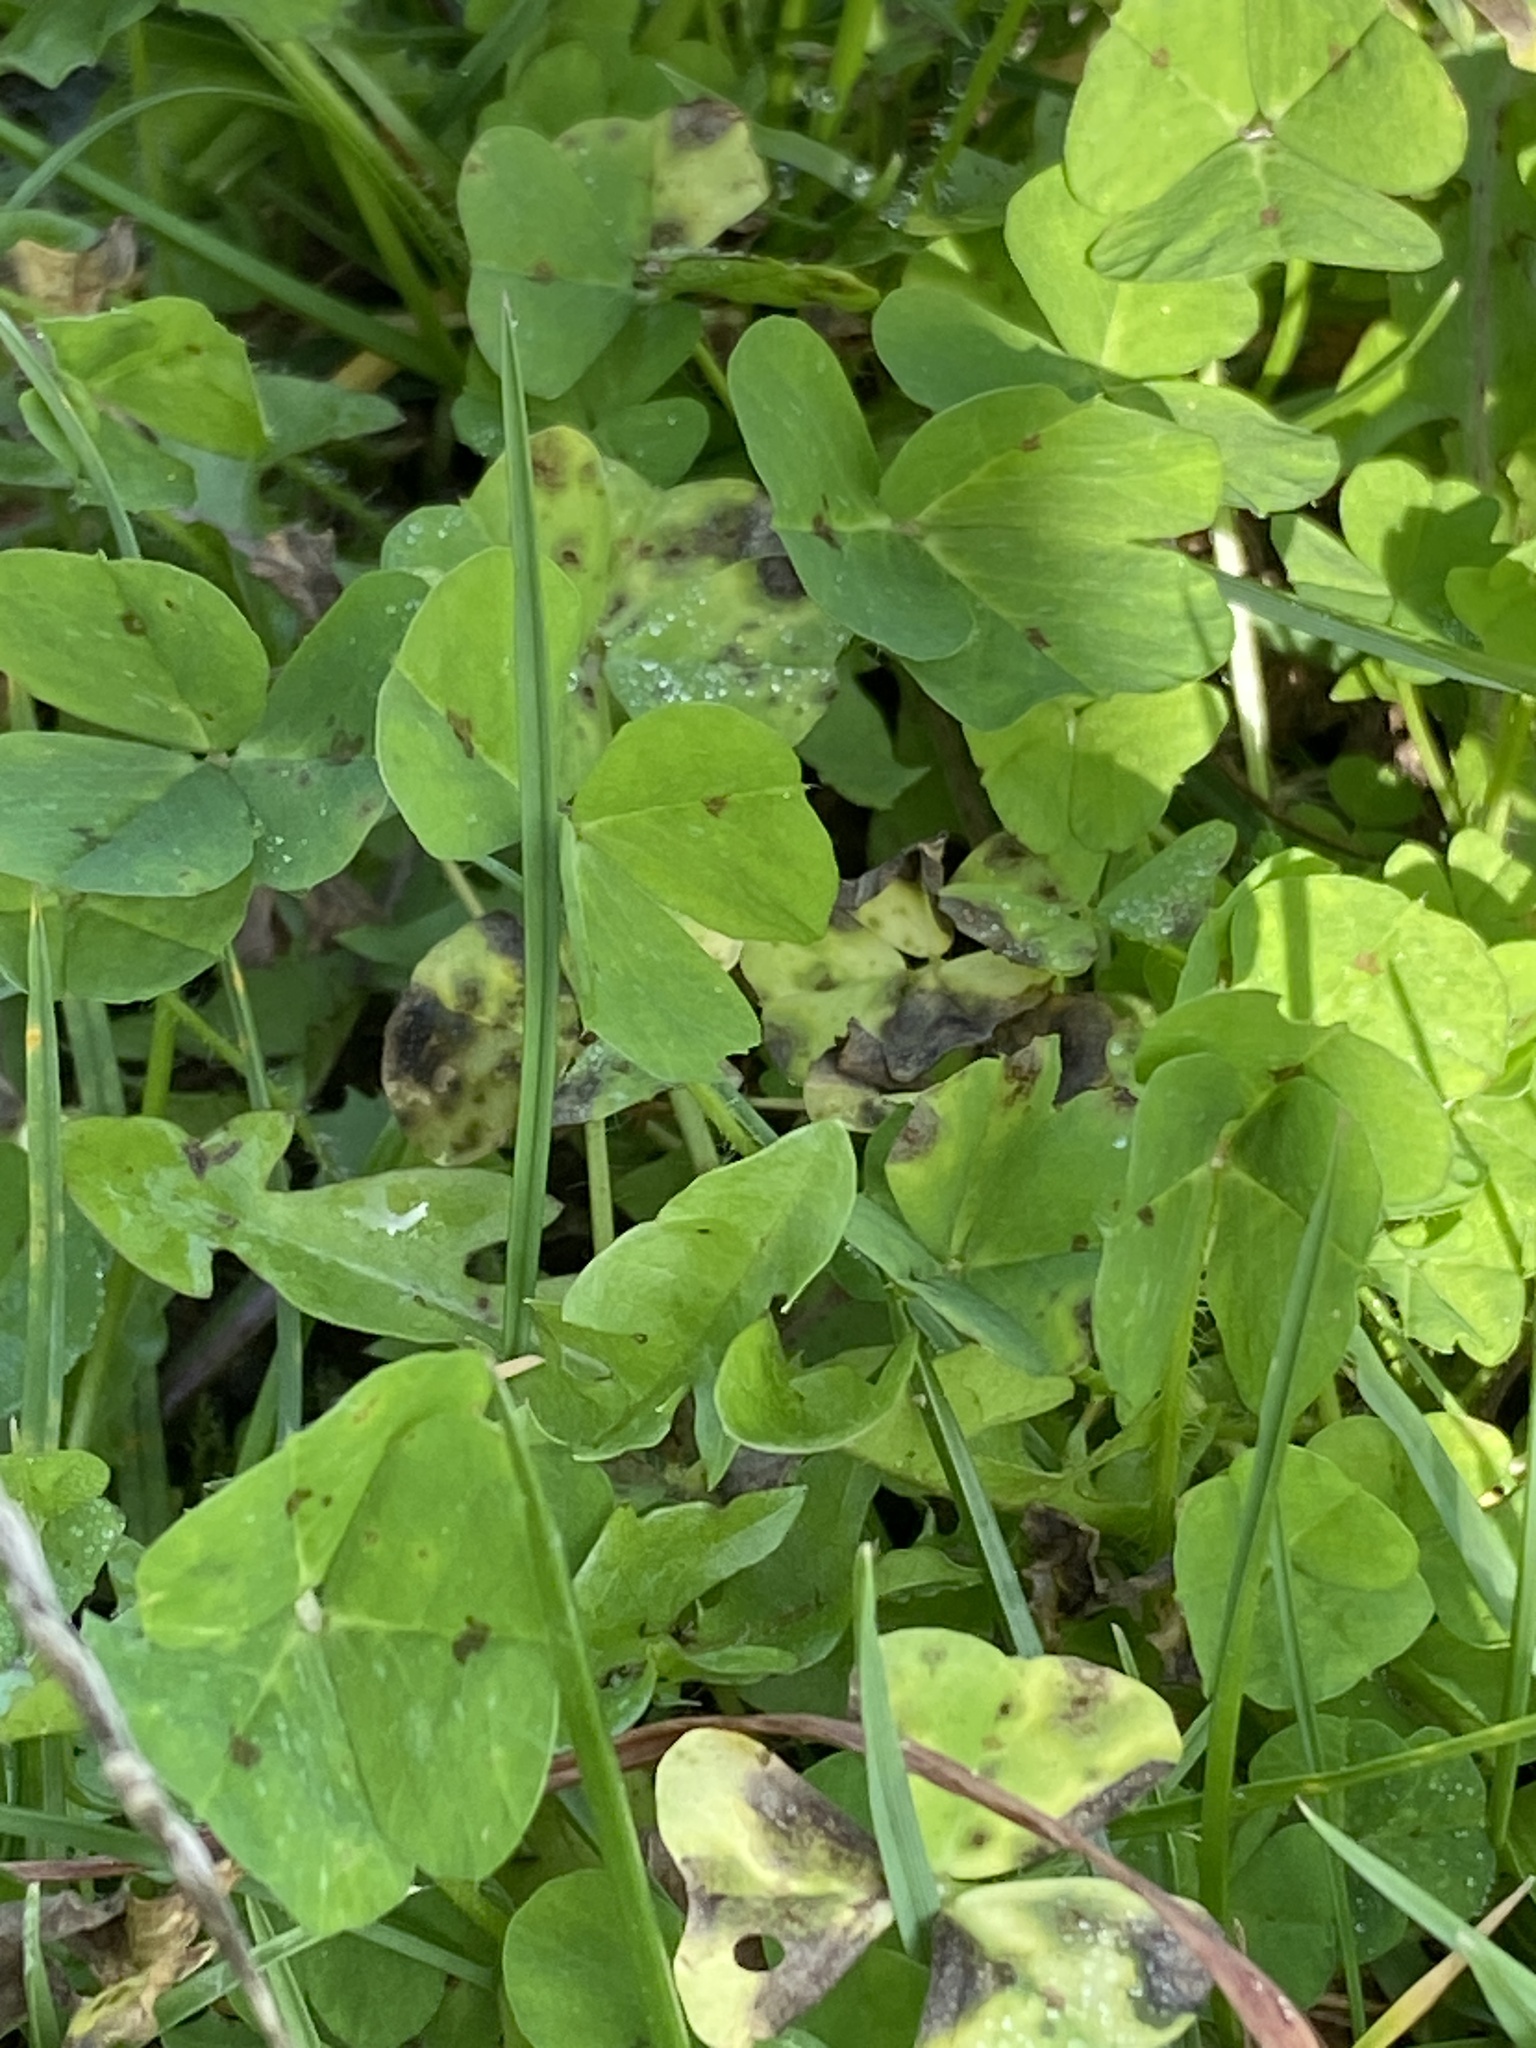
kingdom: Plantae
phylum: Tracheophyta
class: Magnoliopsida
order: Fabales
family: Fabaceae
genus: Medicago
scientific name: Medicago arabica
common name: Spotted medick
